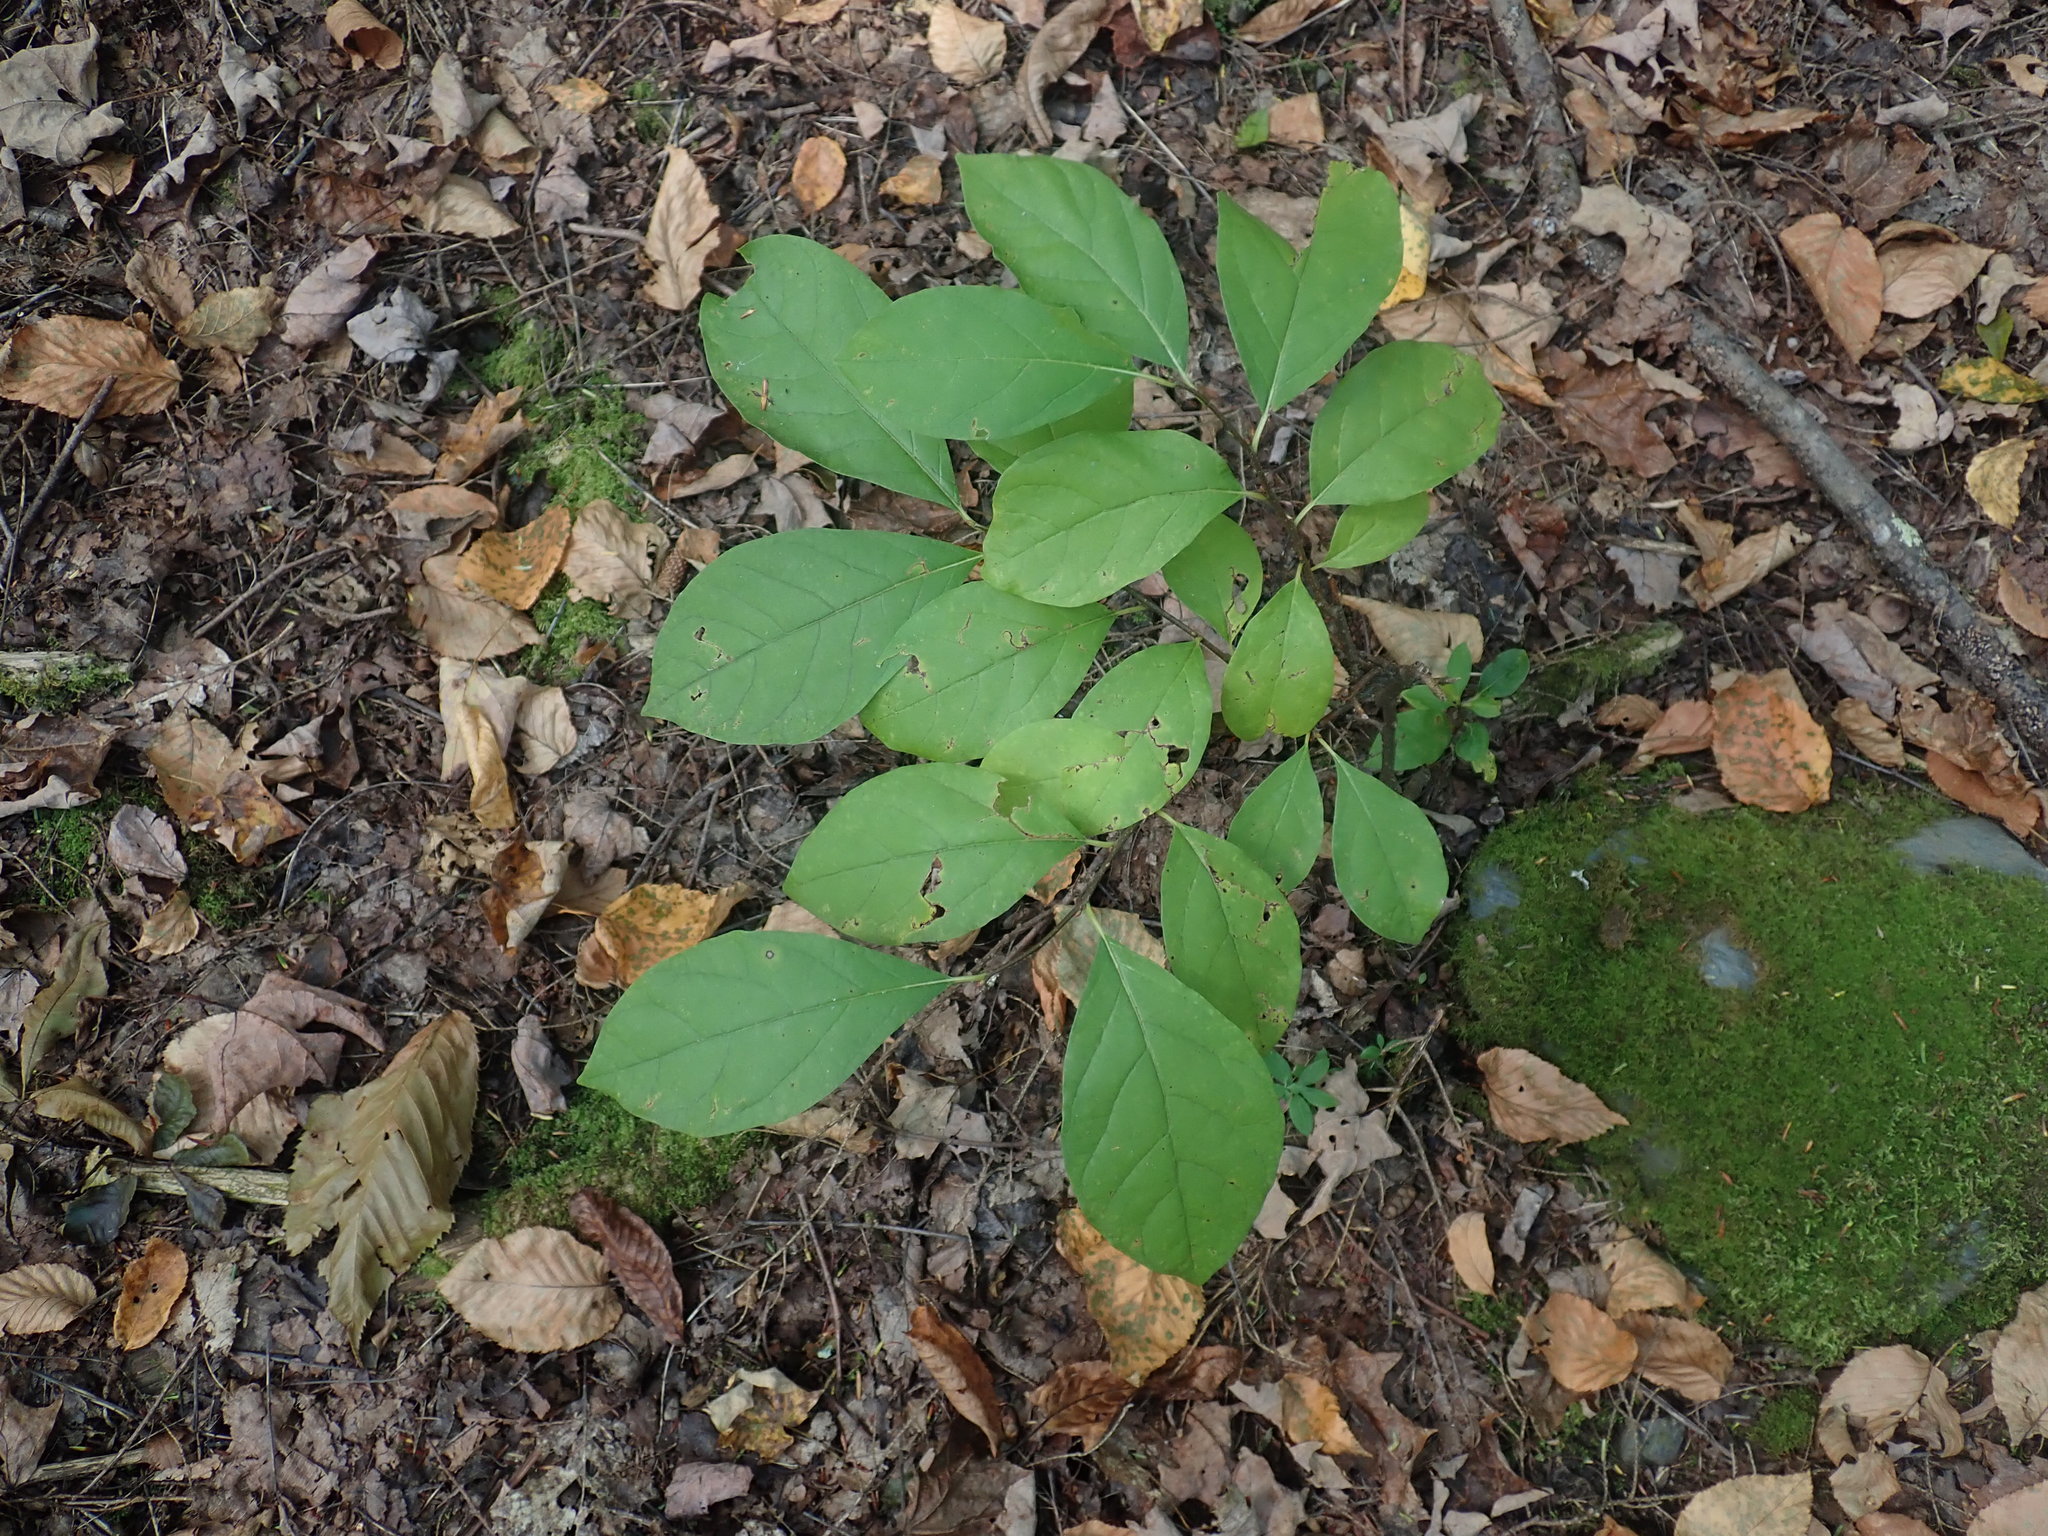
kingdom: Plantae
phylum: Tracheophyta
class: Magnoliopsida
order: Laurales
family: Lauraceae
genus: Lindera
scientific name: Lindera benzoin
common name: Spicebush
